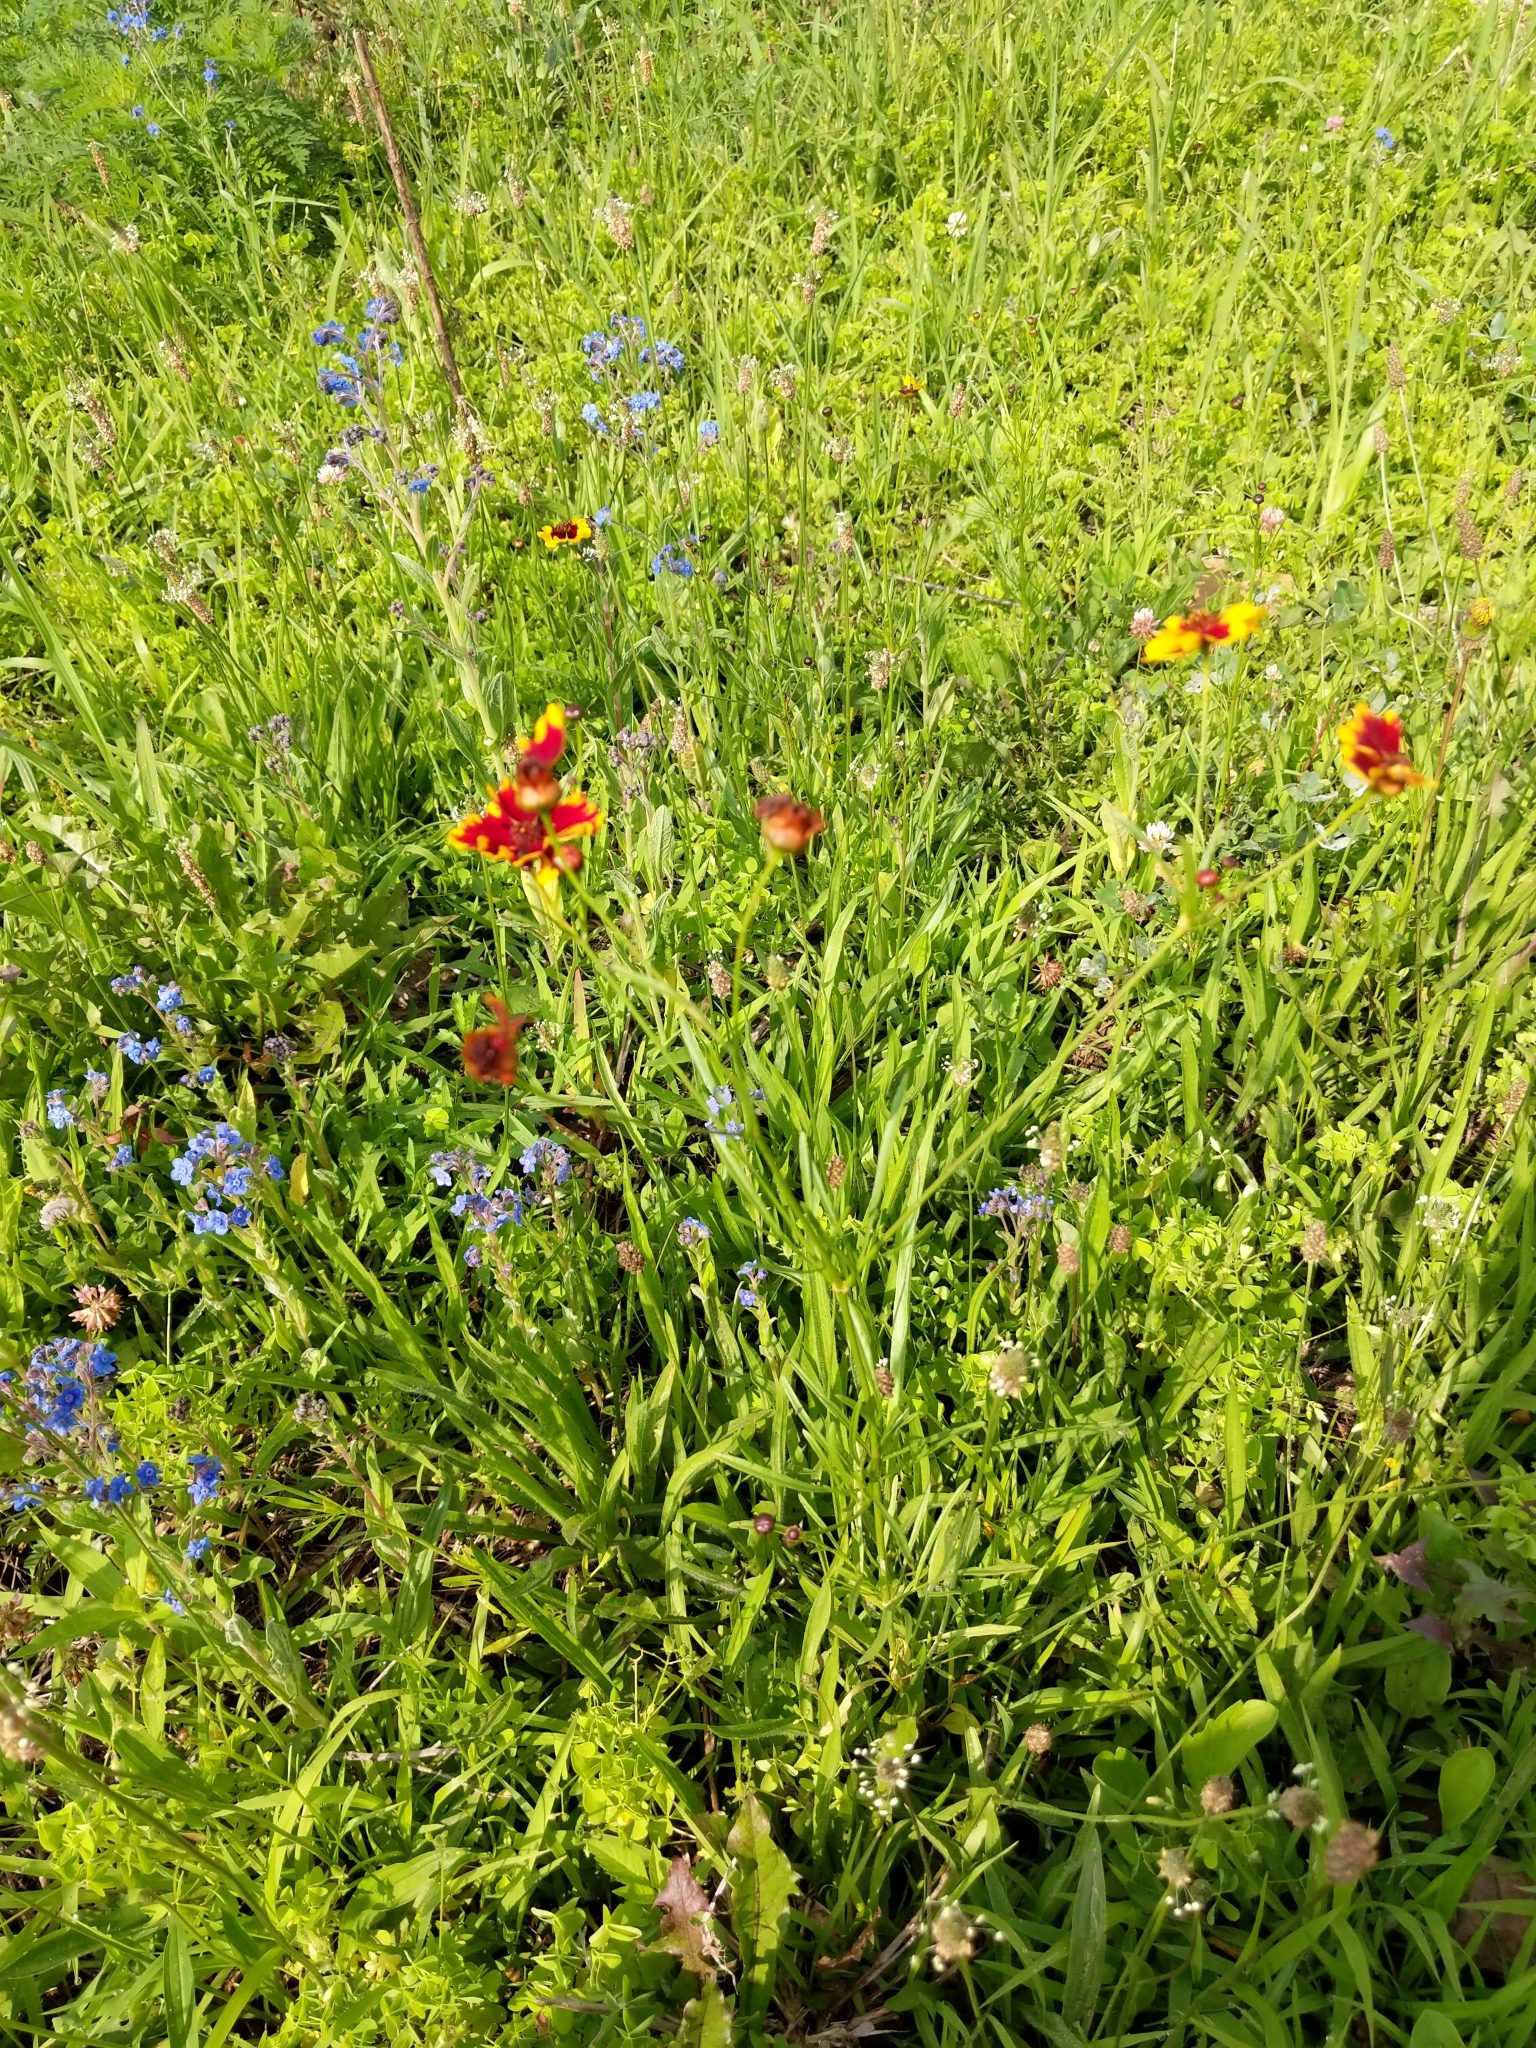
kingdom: Plantae
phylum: Tracheophyta
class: Magnoliopsida
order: Asterales
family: Asteraceae
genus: Coreopsis
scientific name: Coreopsis tinctoria
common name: Garden tickseed
